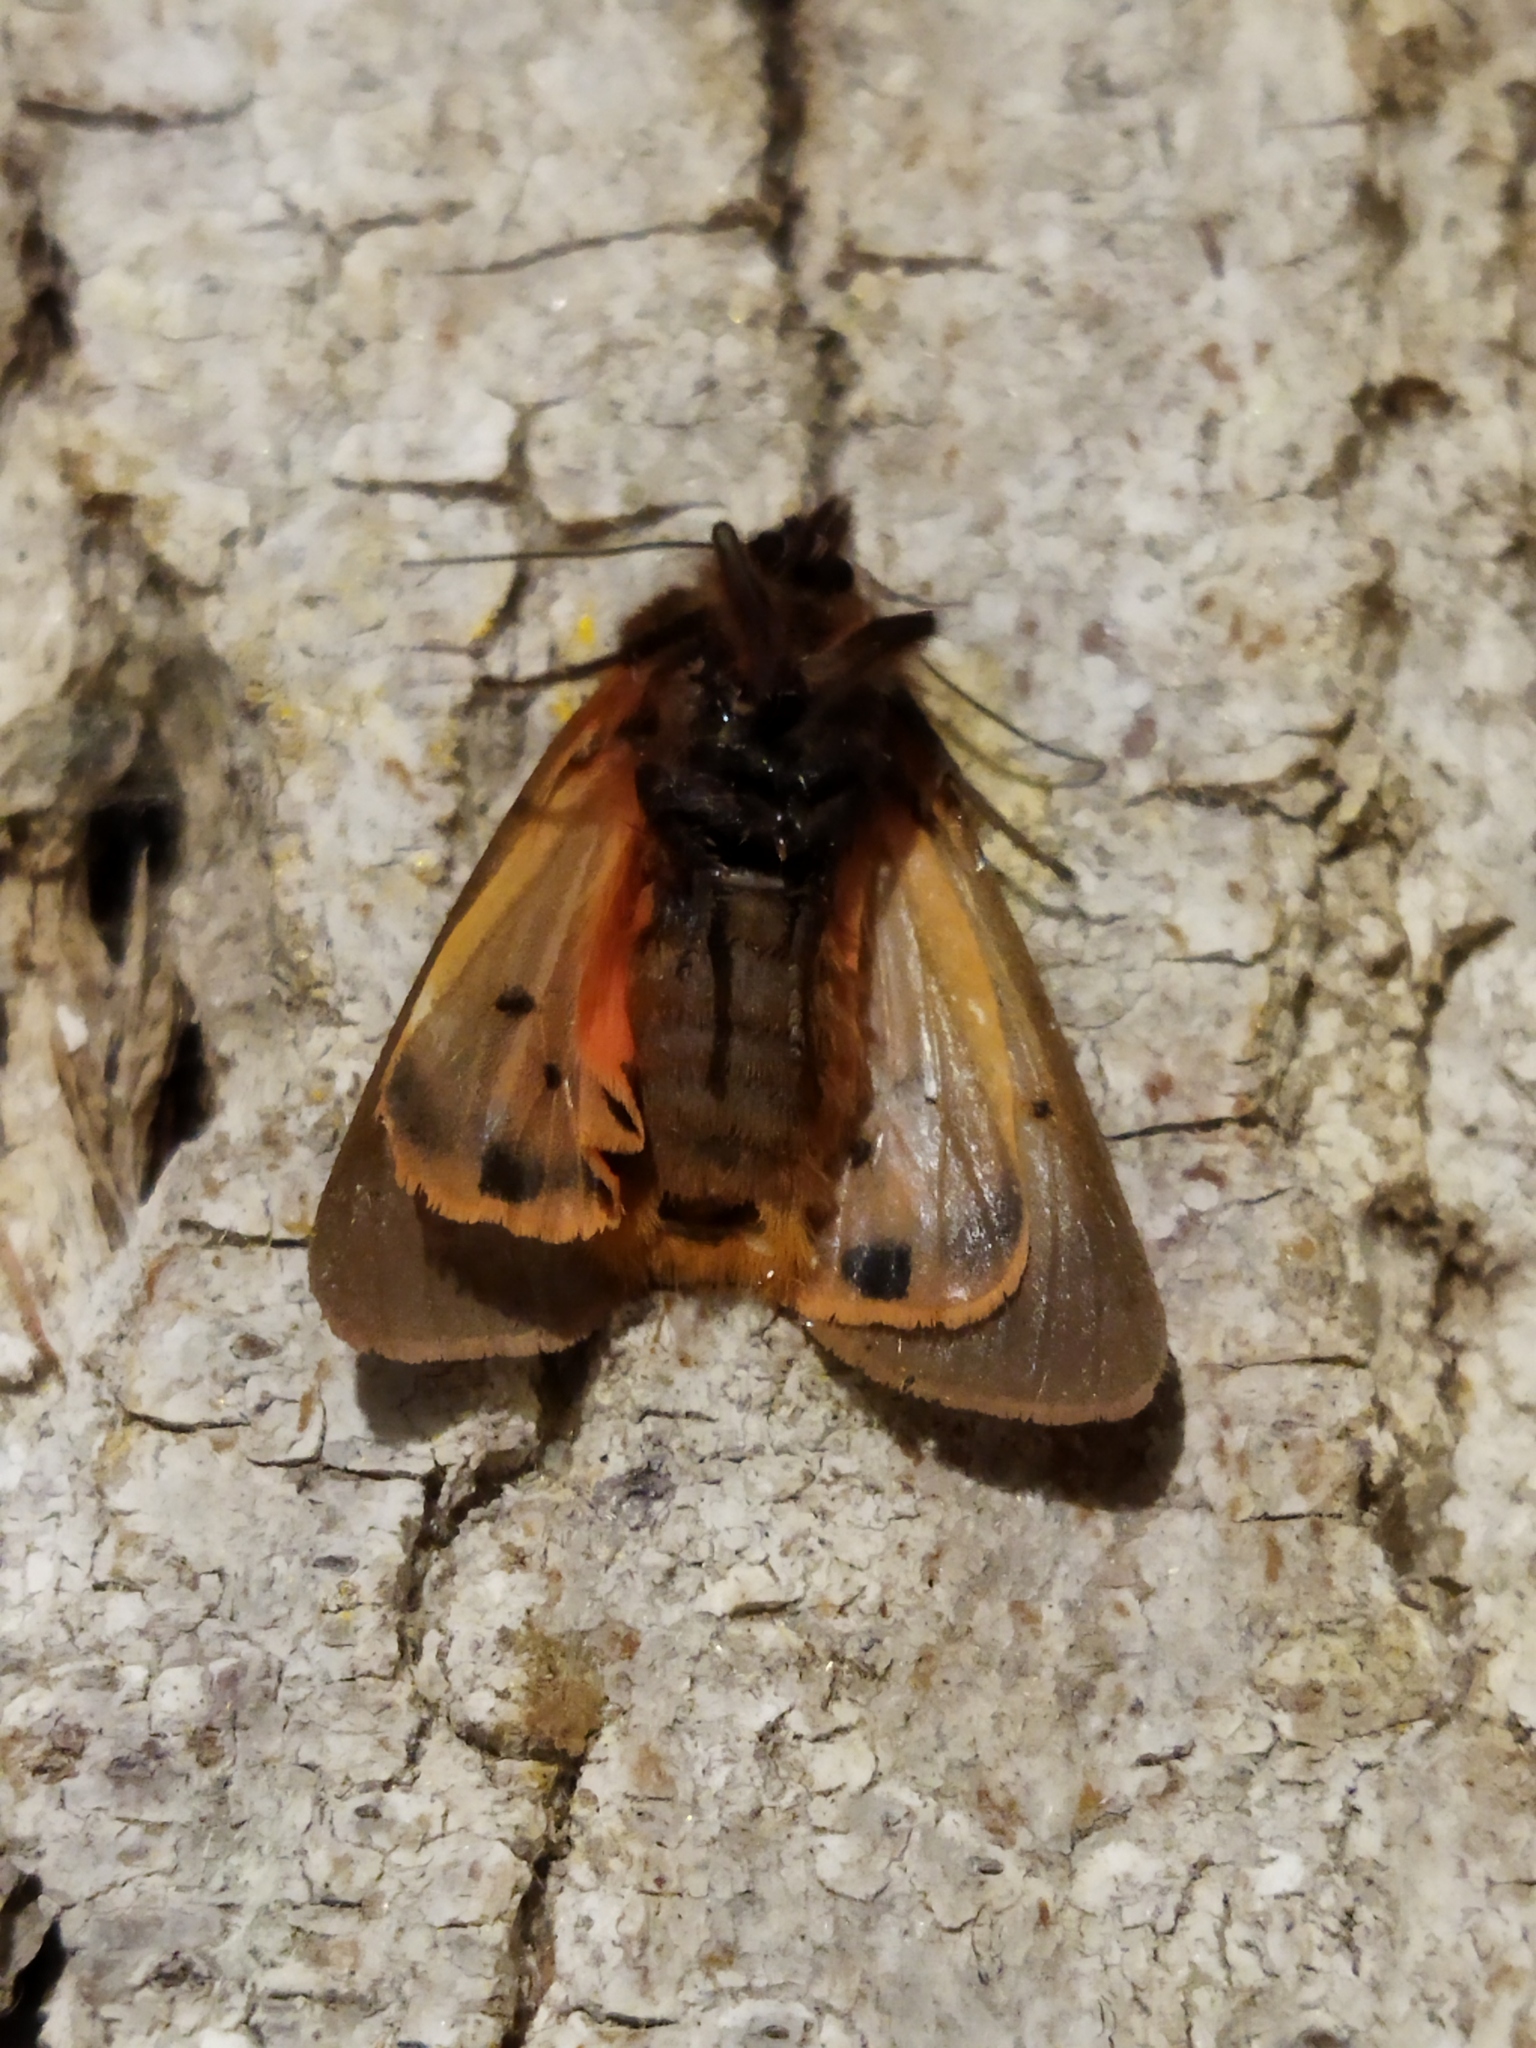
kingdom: Animalia
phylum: Arthropoda
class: Insecta
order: Lepidoptera
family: Erebidae
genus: Phragmatobia
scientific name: Phragmatobia fuliginosa
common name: Ruby tiger
